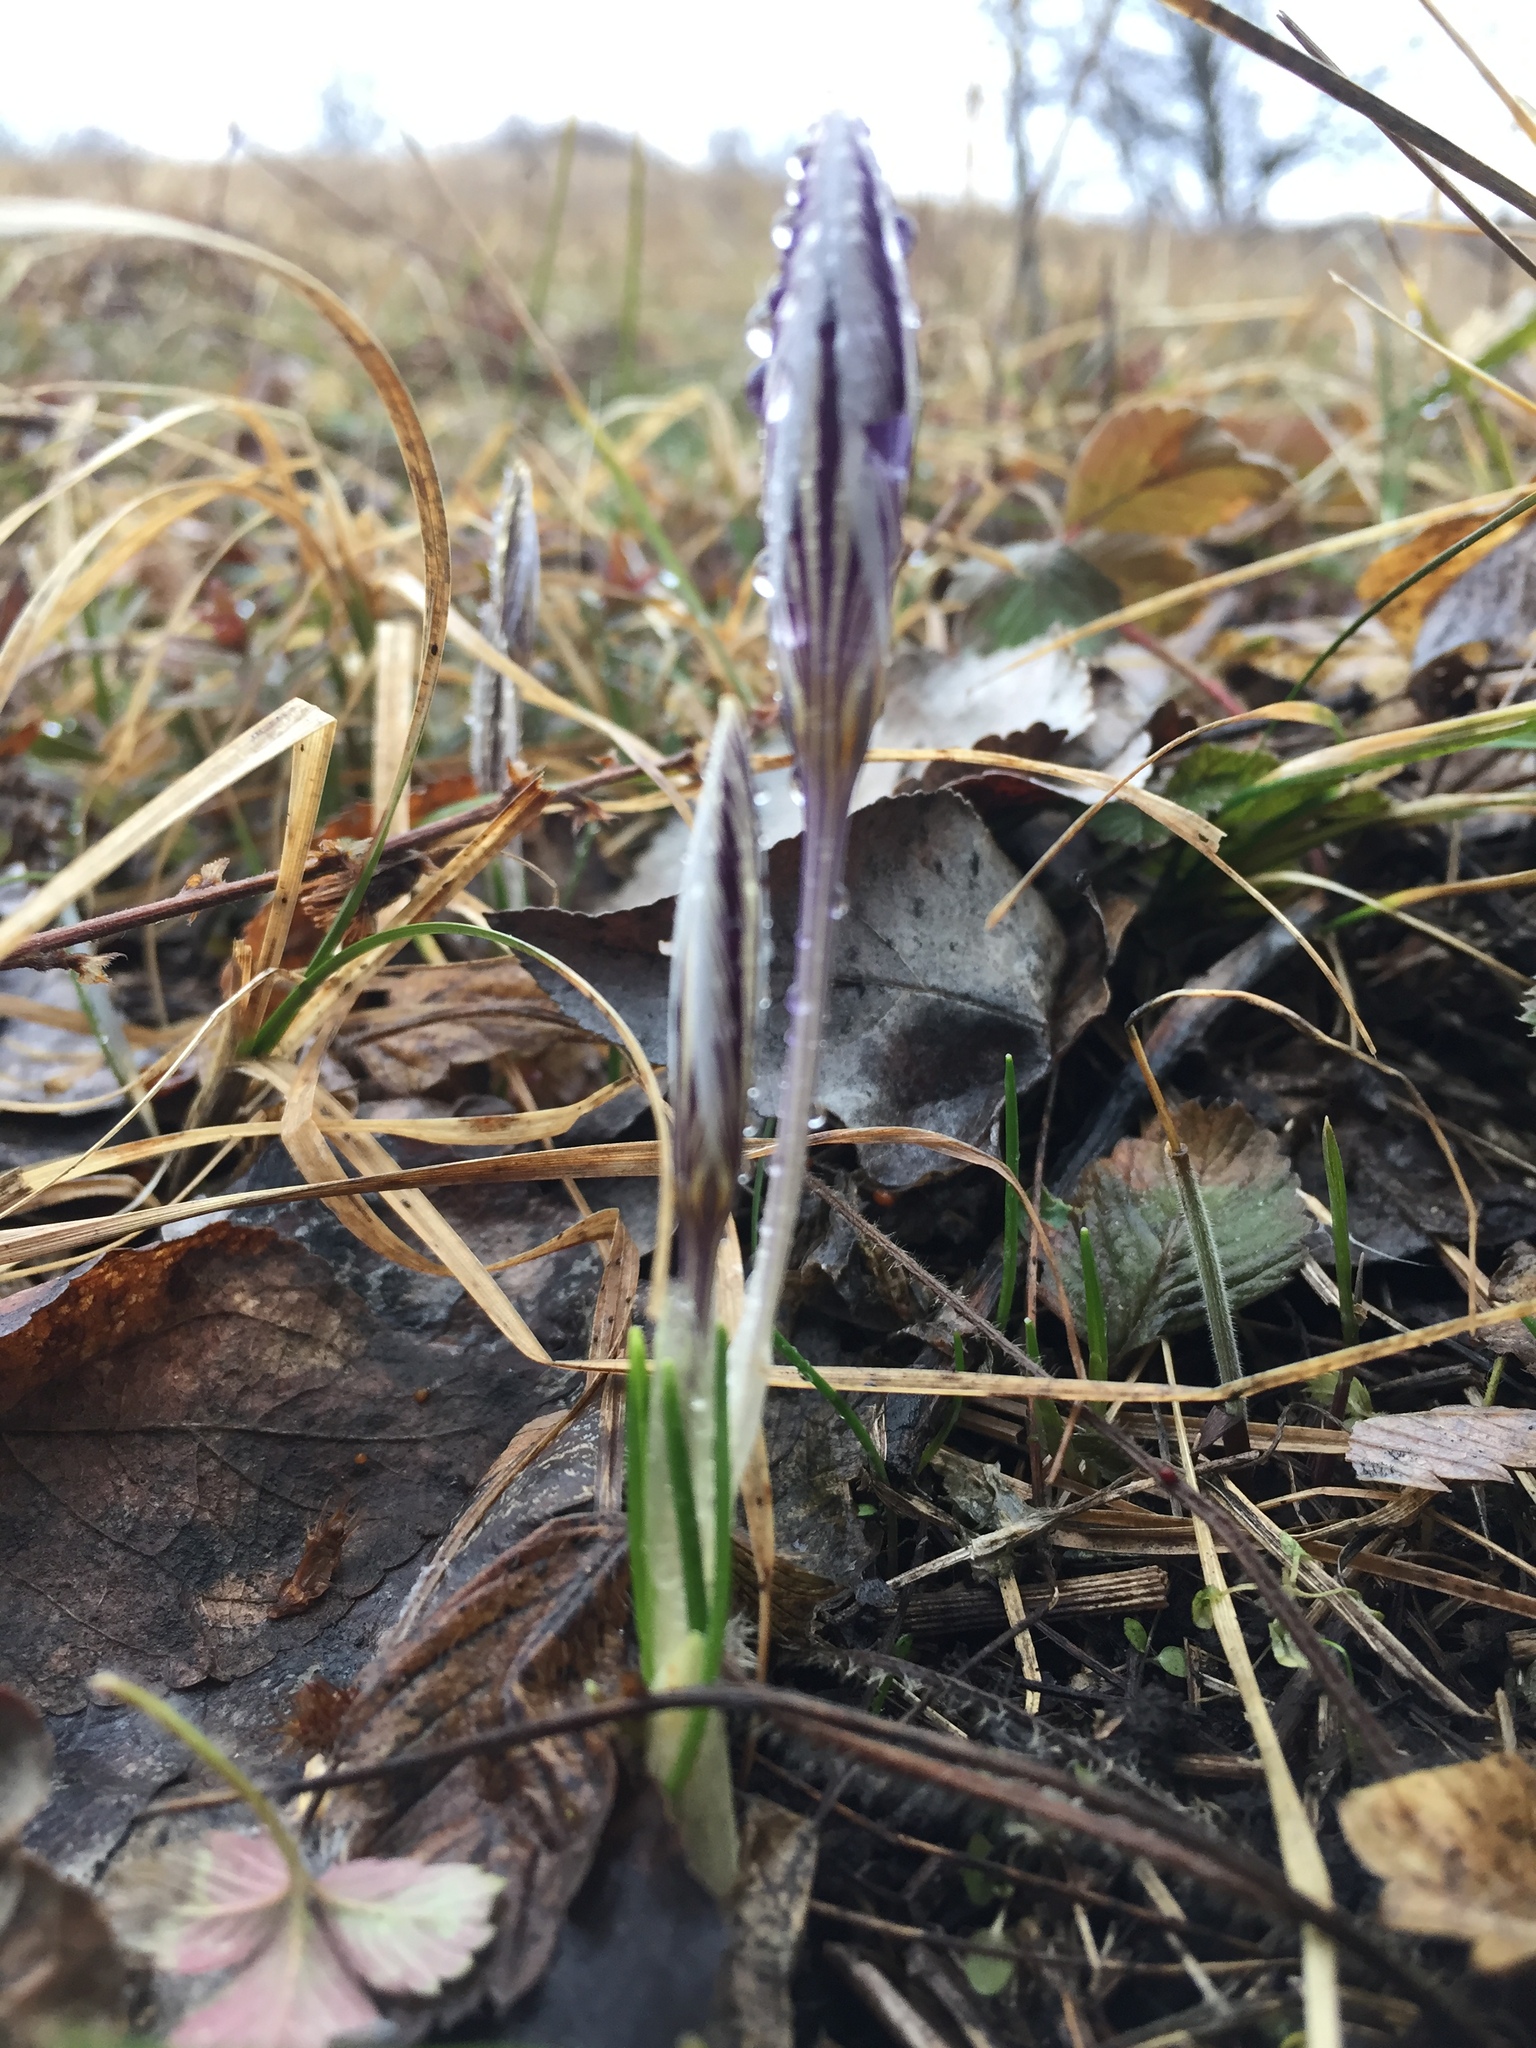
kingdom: Plantae
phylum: Tracheophyta
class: Liliopsida
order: Asparagales
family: Iridaceae
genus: Crocus
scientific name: Crocus reticulatus
